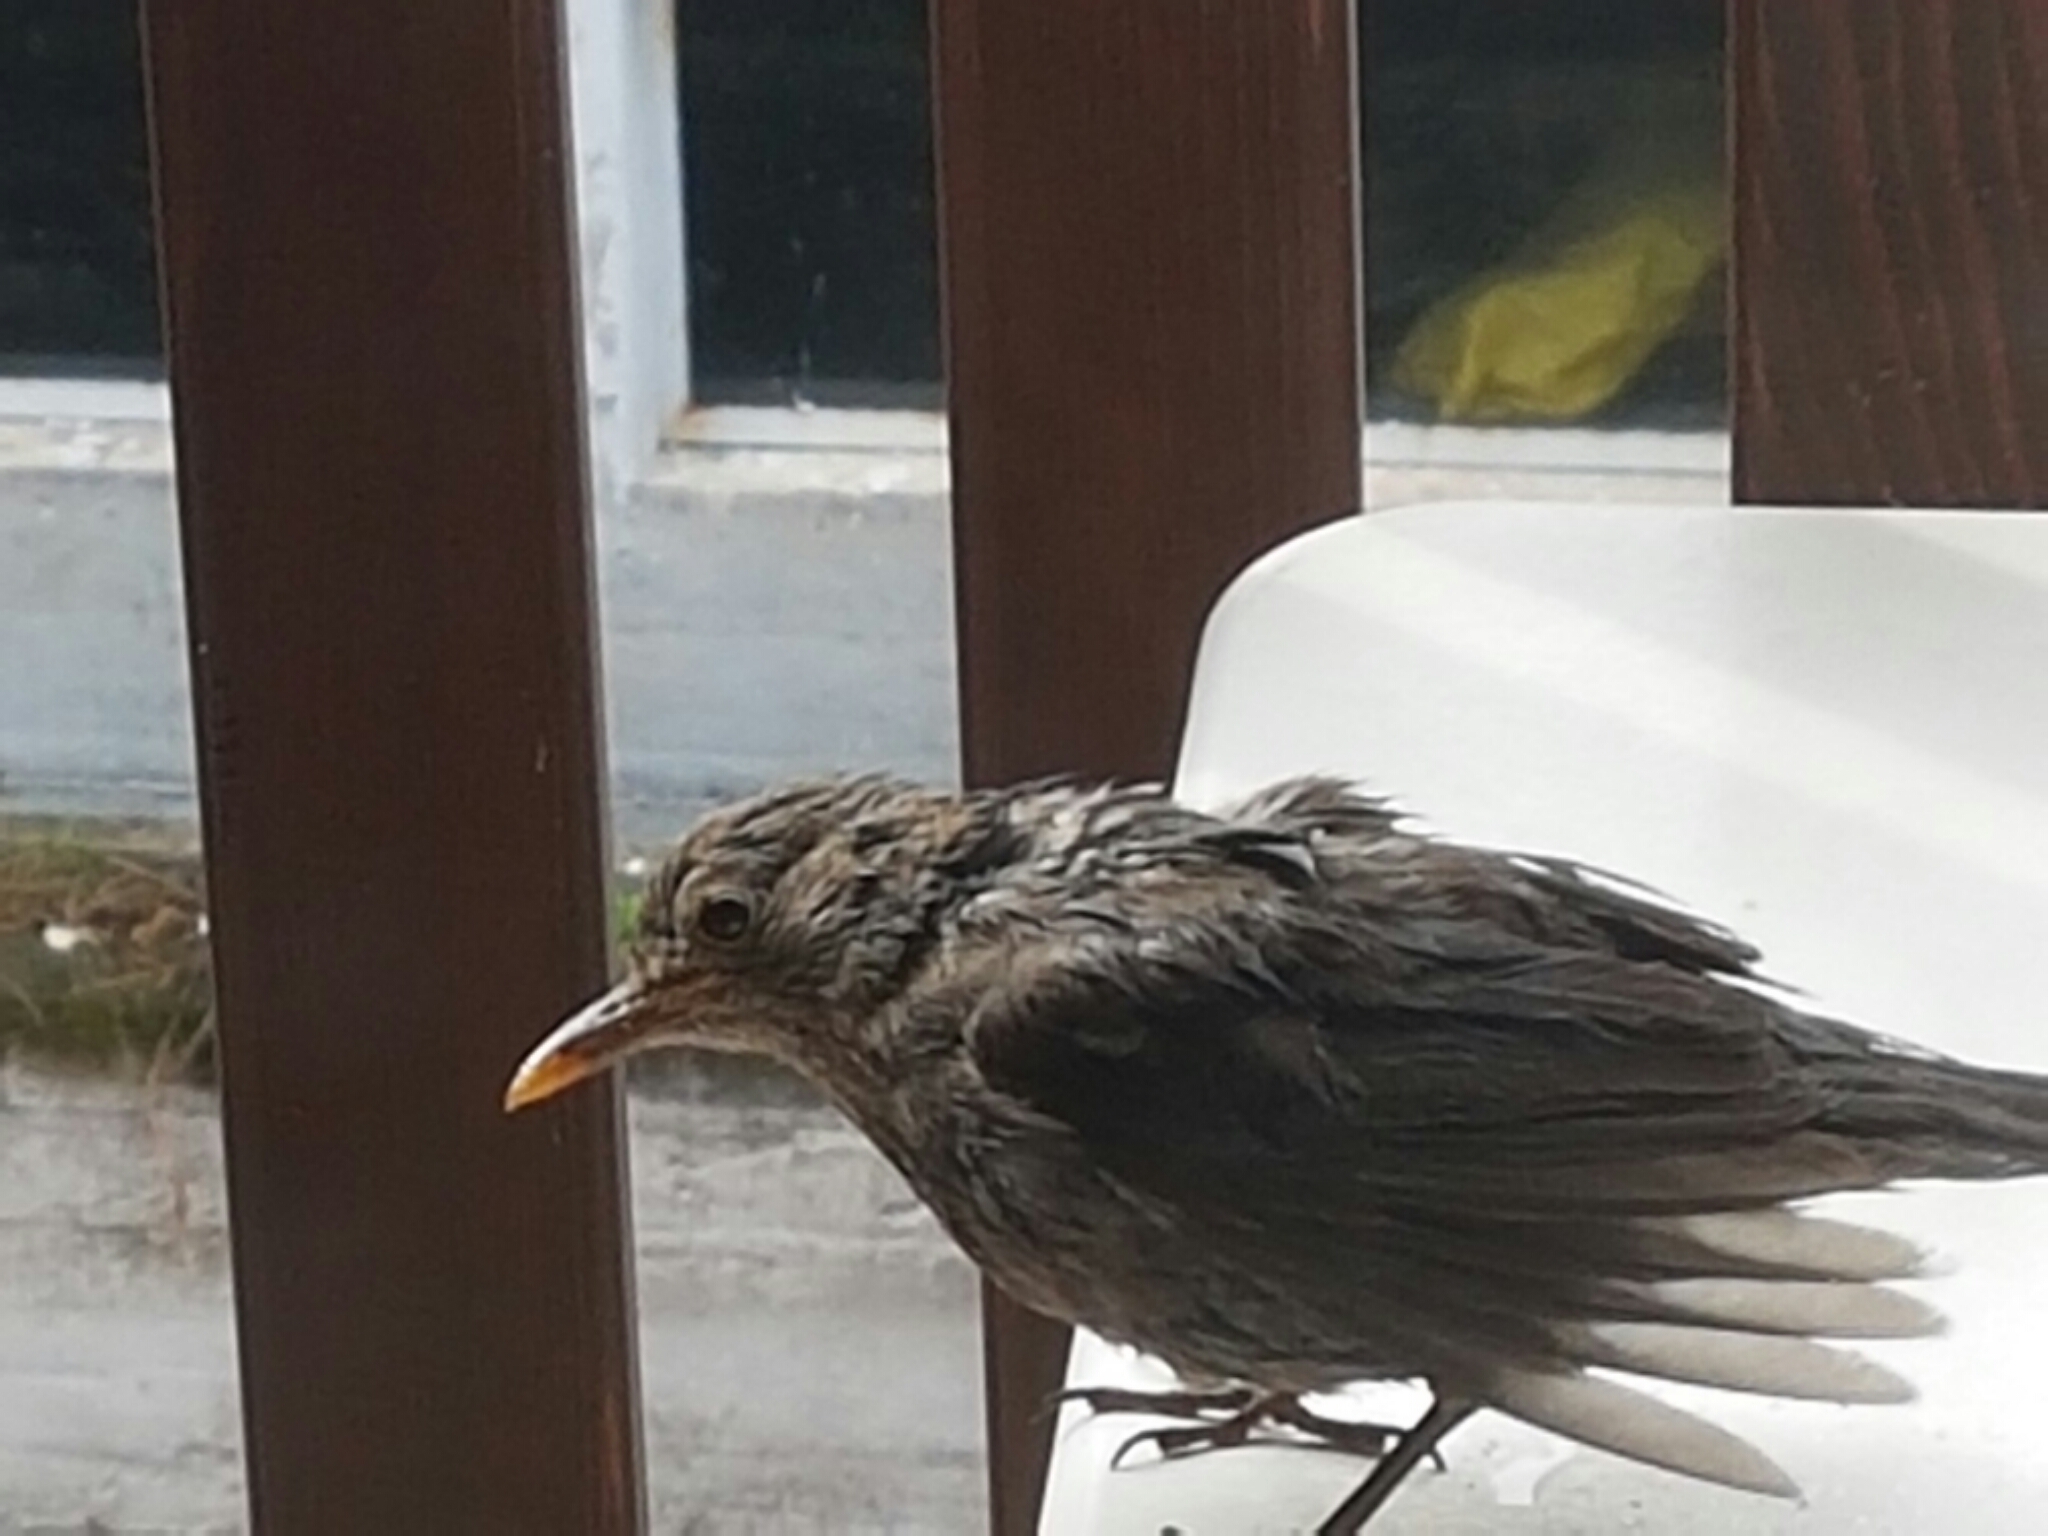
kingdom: Animalia
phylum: Chordata
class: Aves
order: Passeriformes
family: Turdidae
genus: Turdus
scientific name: Turdus merula
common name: Common blackbird
